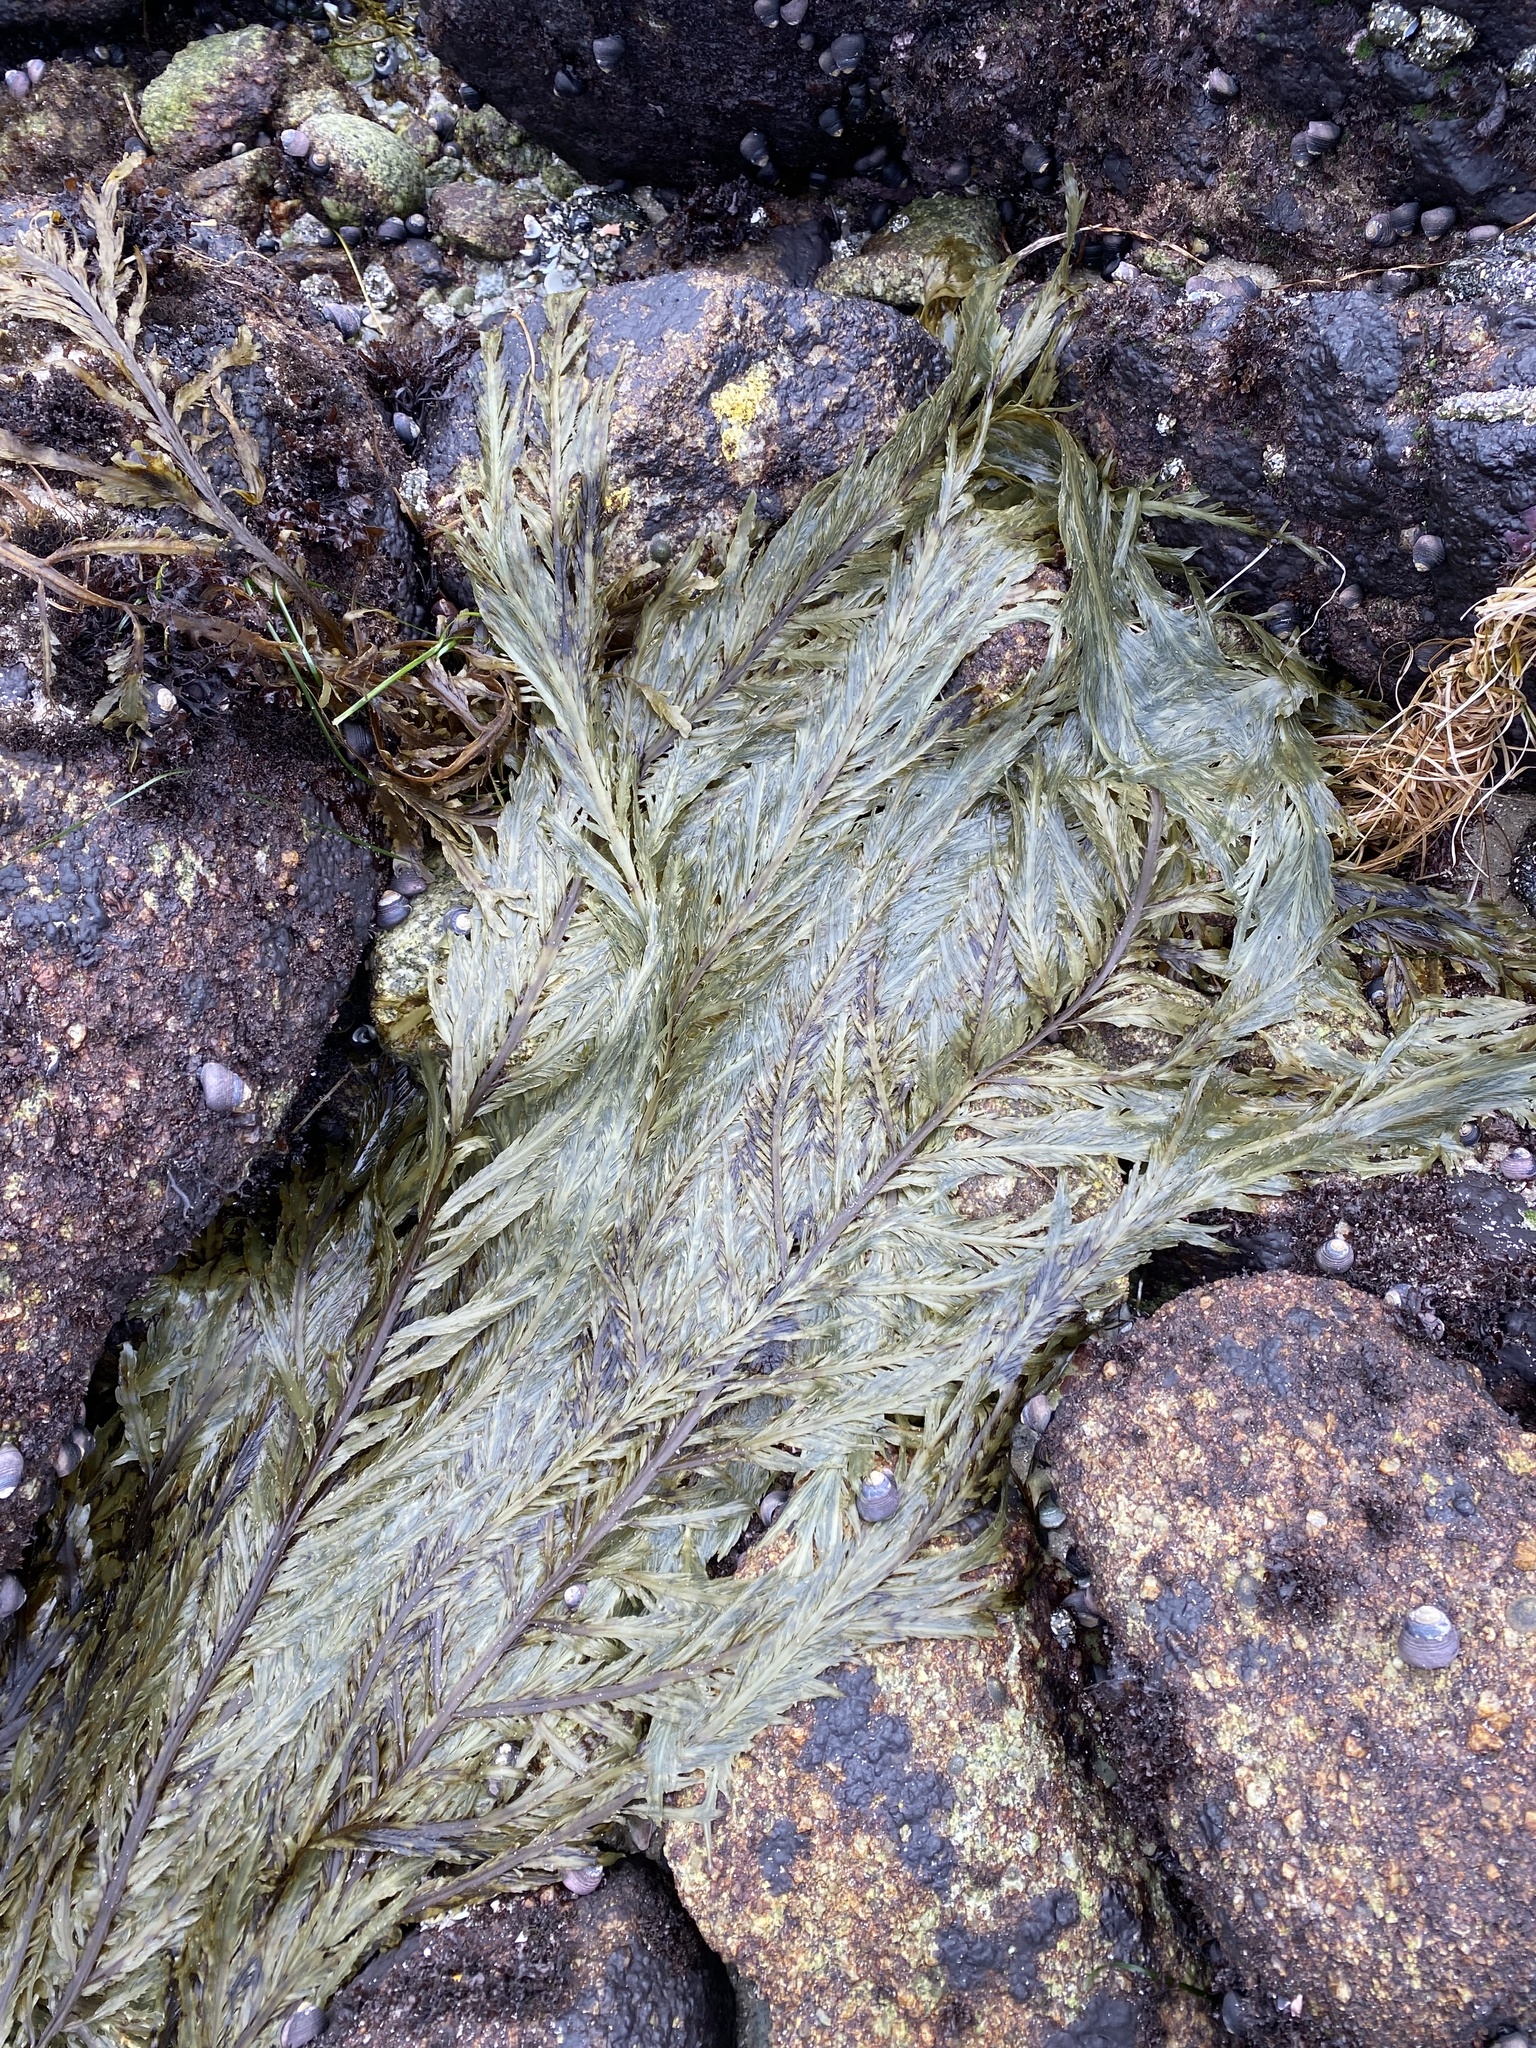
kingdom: Chromista
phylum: Ochrophyta
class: Phaeophyceae
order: Desmarestiales
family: Desmarestiaceae
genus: Desmarestia
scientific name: Desmarestia ligulata
